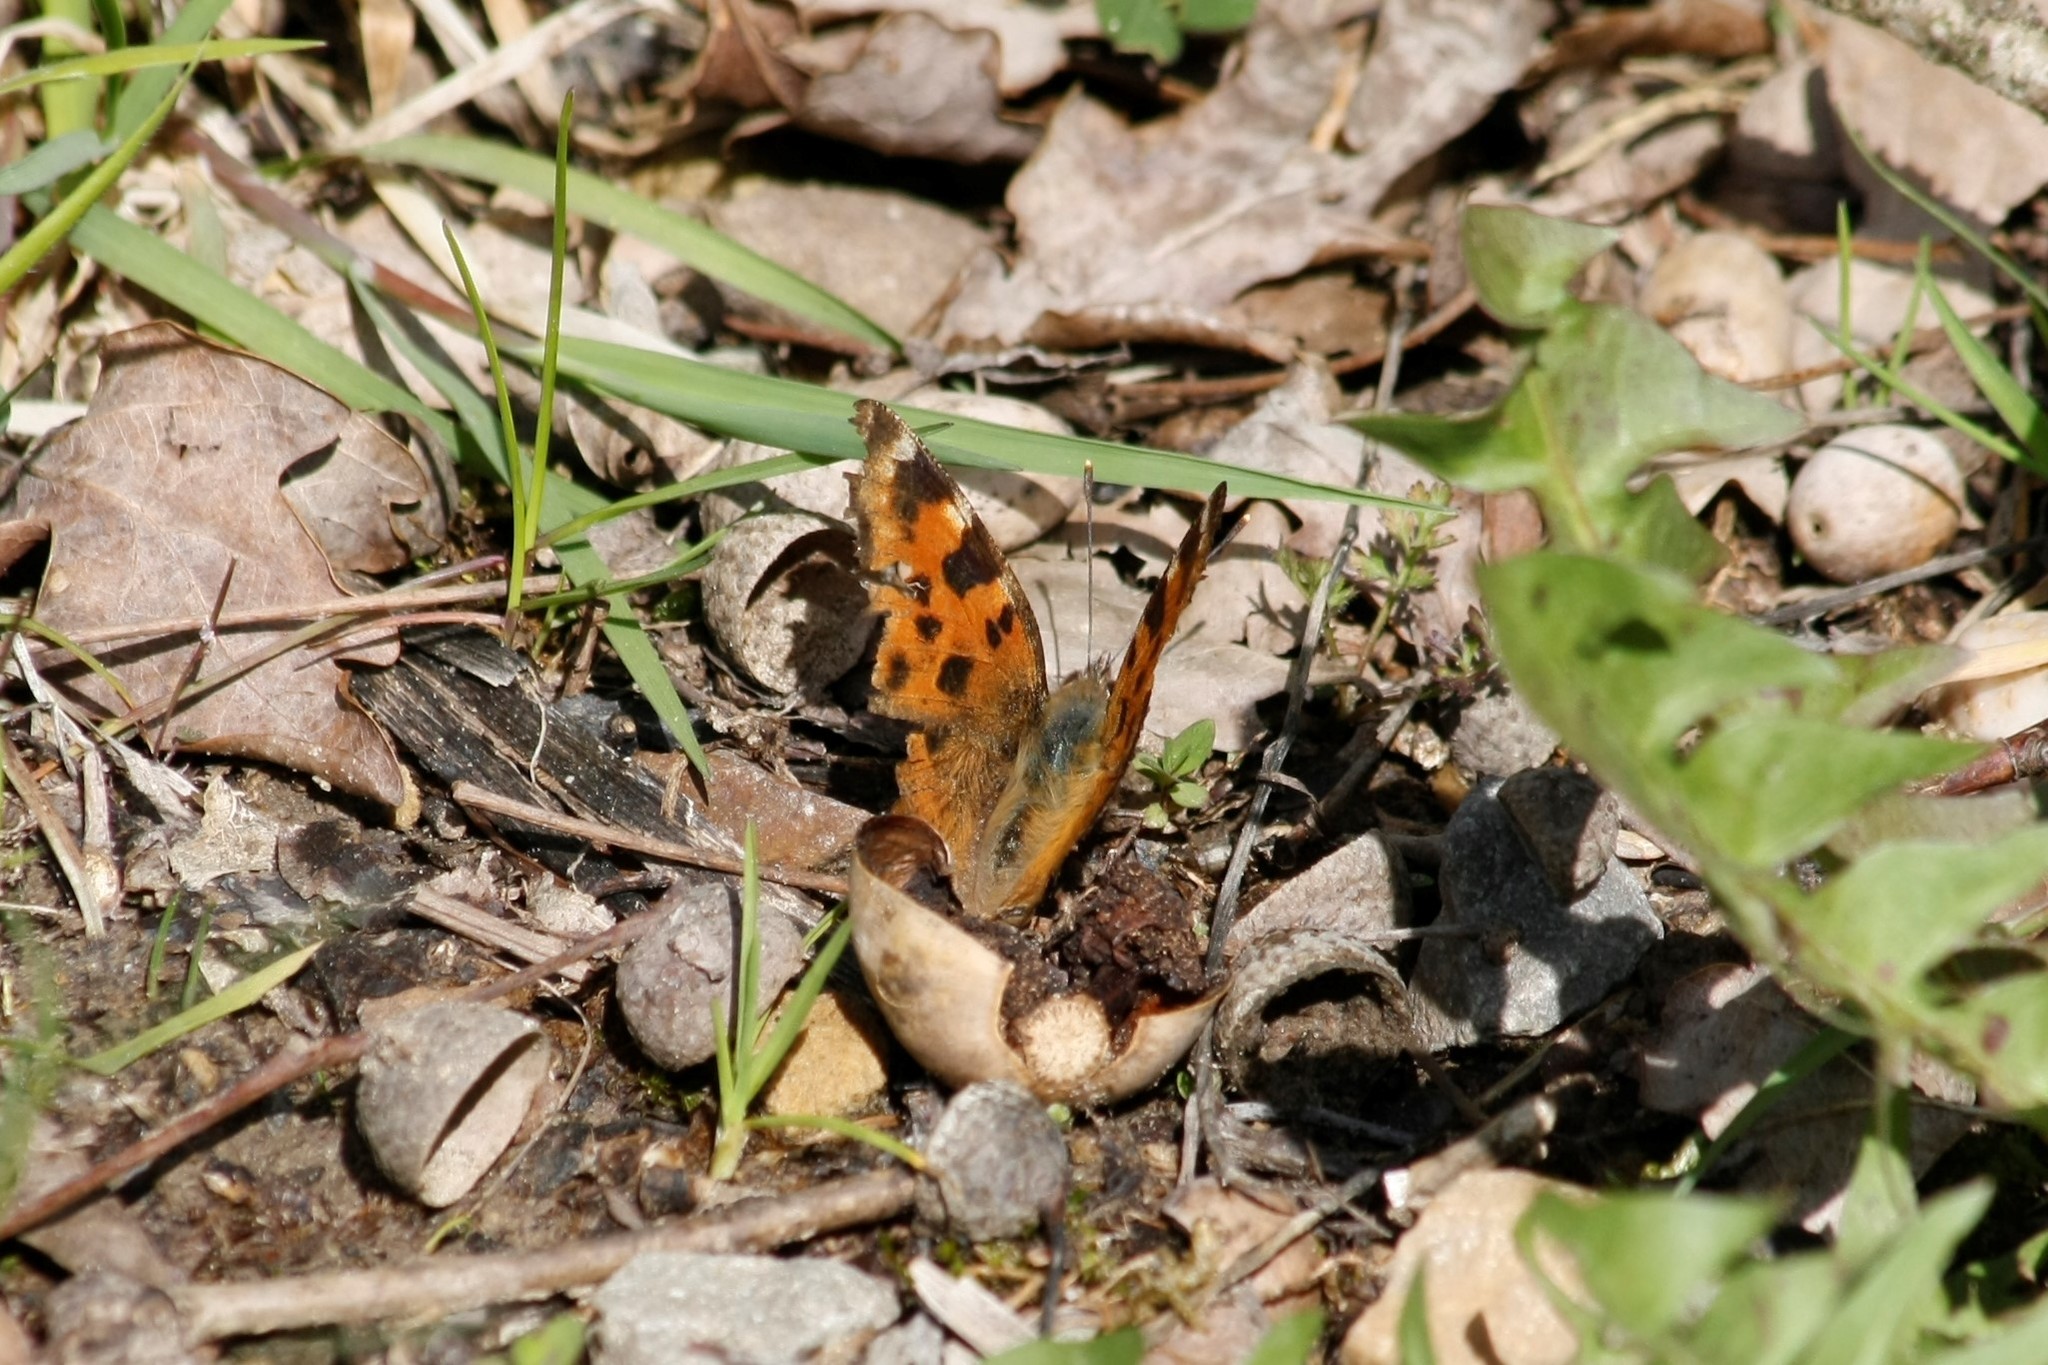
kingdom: Animalia
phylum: Arthropoda
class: Insecta
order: Lepidoptera
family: Nymphalidae
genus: Nymphalis
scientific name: Nymphalis polychloros
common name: Large tortoiseshell
